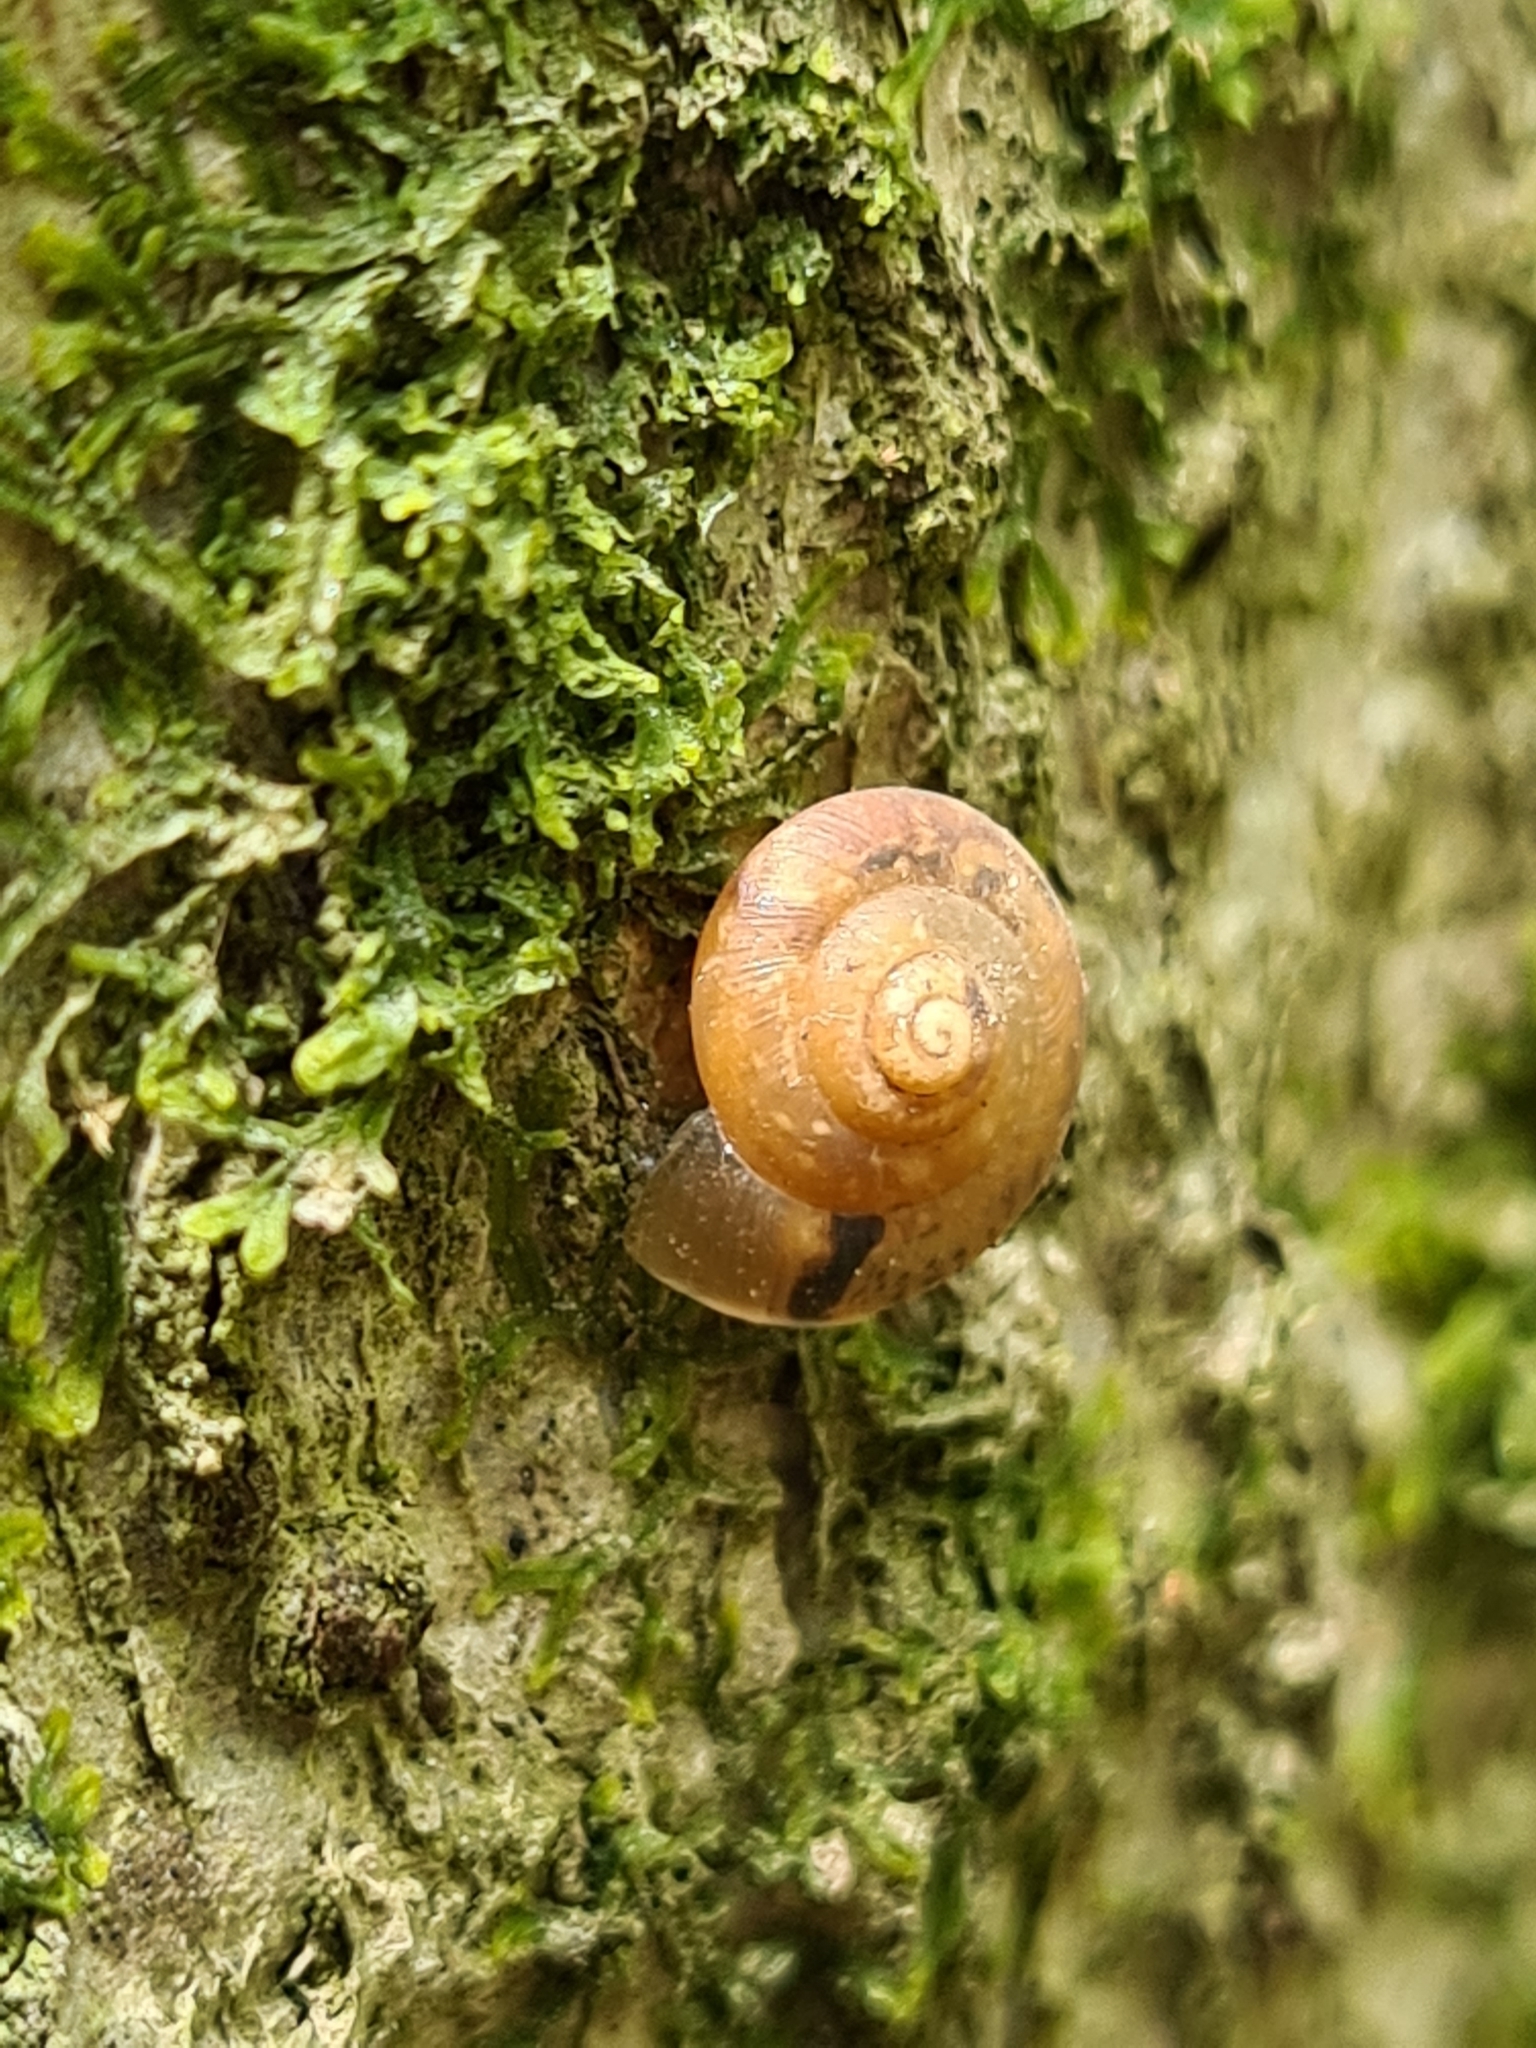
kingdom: Animalia
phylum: Mollusca
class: Gastropoda
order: Stylommatophora
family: Hygromiidae
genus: Hygromia
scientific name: Hygromia cinctella
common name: Girdled snail
